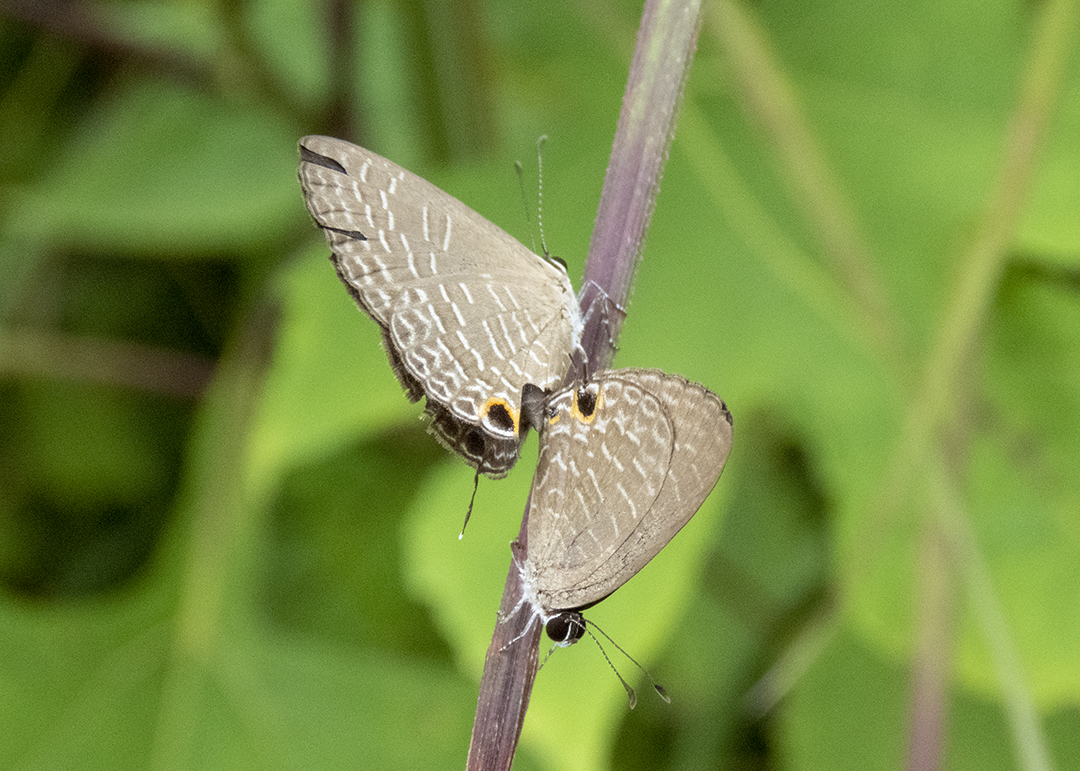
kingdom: Animalia
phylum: Arthropoda
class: Insecta
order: Lepidoptera
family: Lycaenidae
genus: Jamides
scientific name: Jamides bochus
